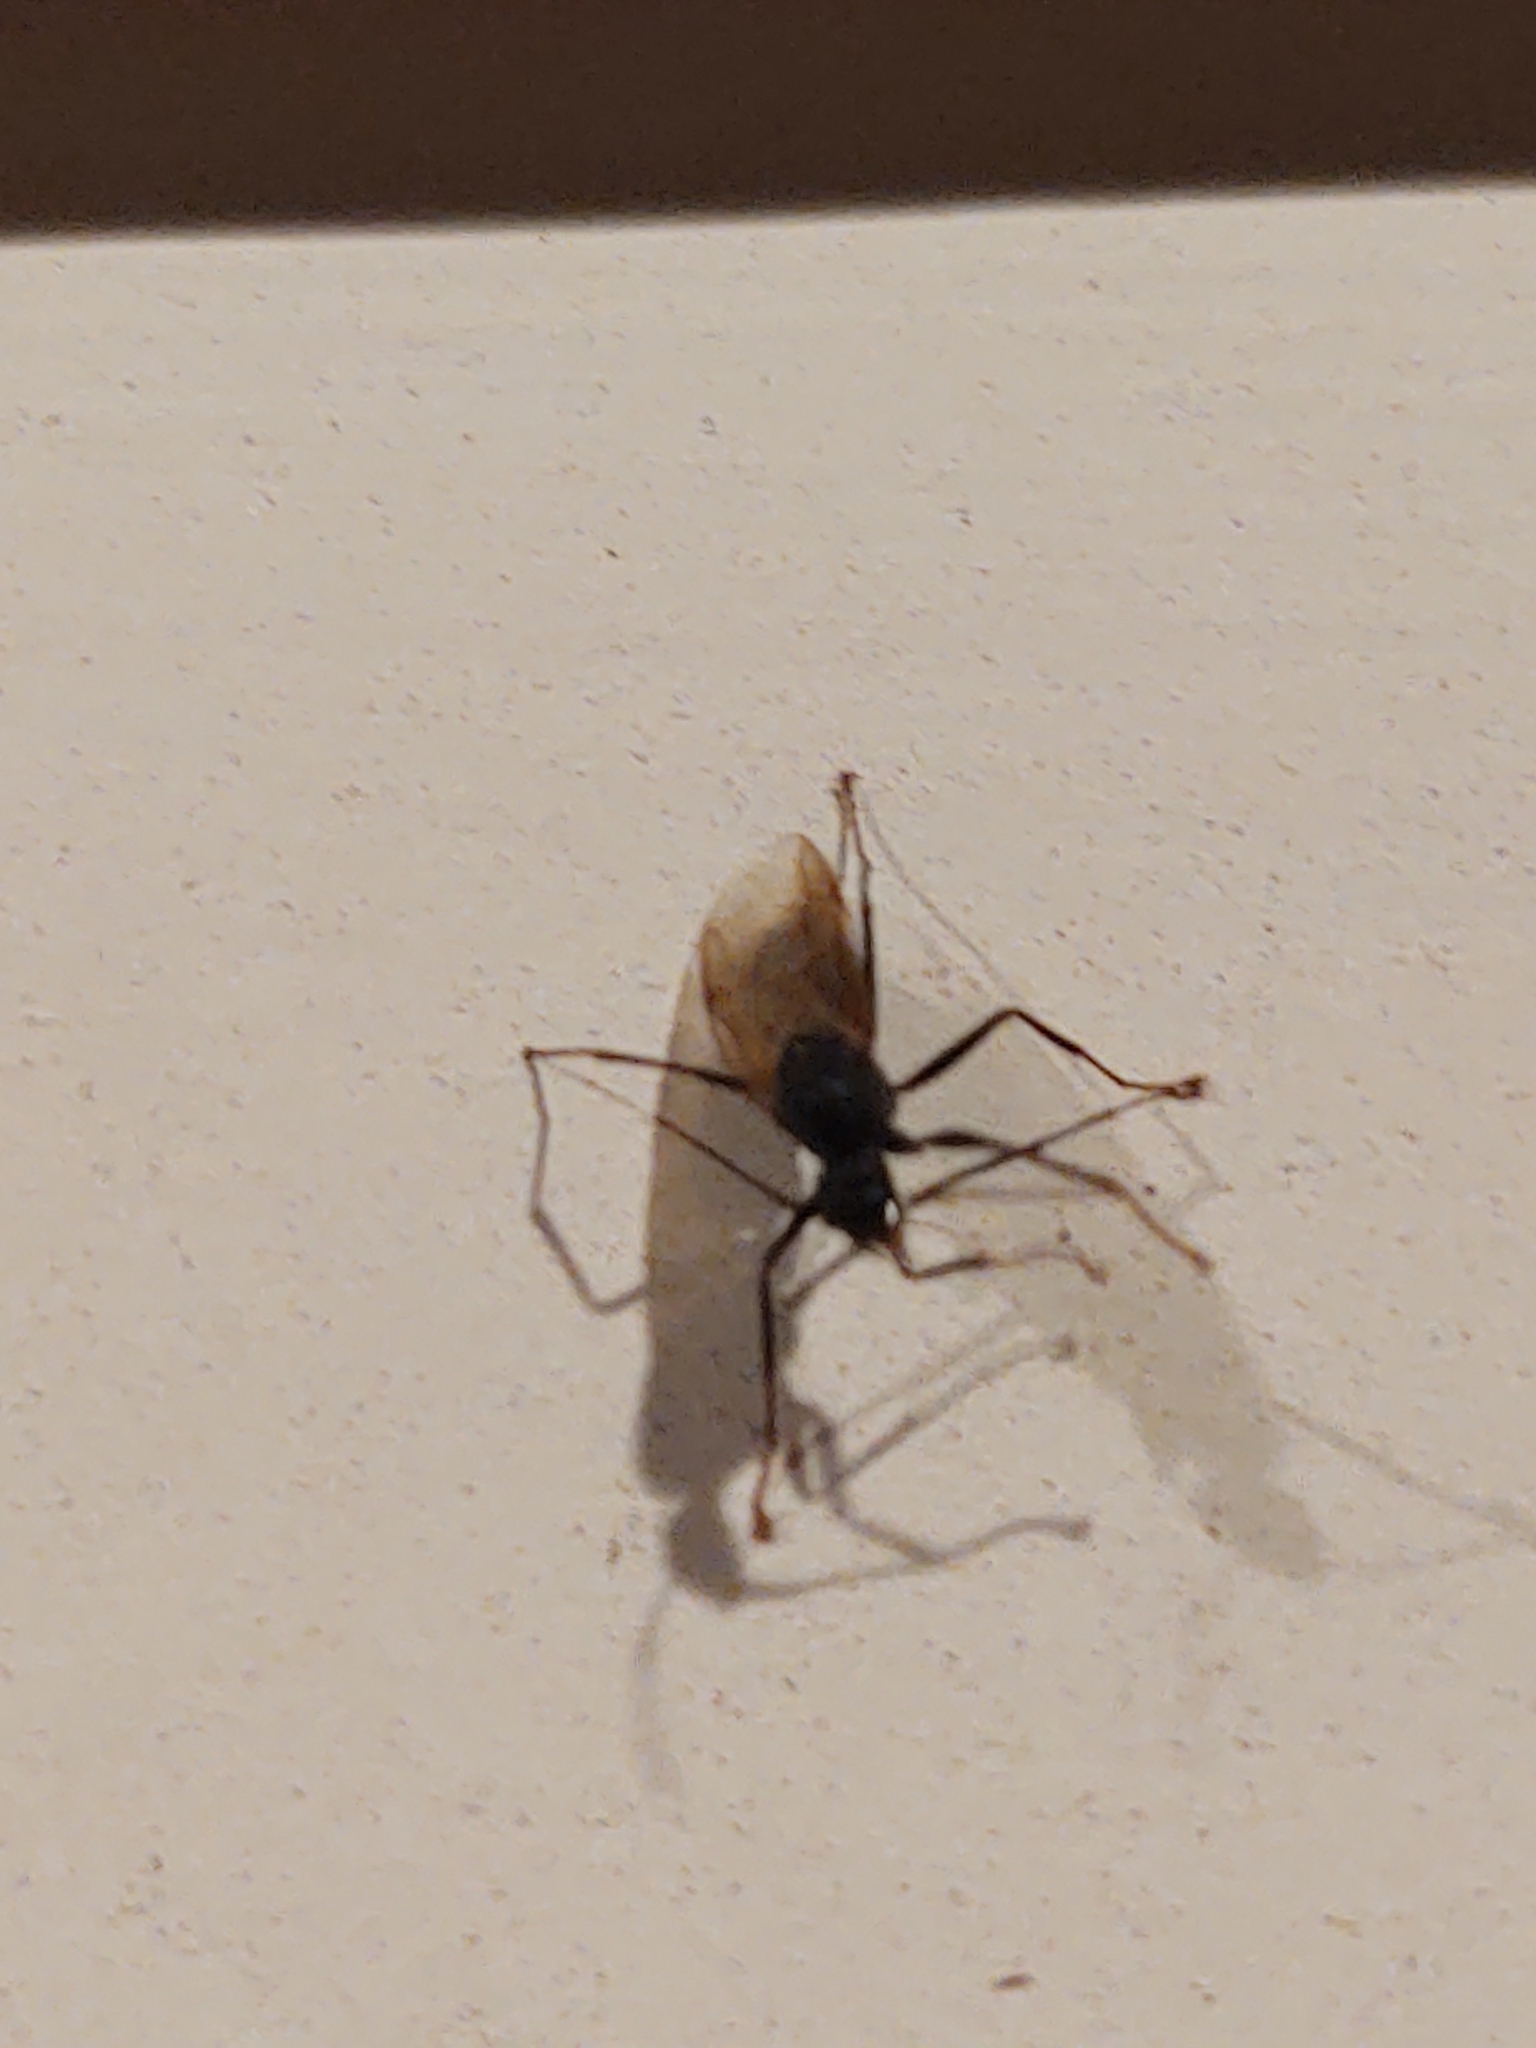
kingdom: Animalia
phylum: Arthropoda
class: Insecta
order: Hymenoptera
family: Formicidae
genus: Camponotus
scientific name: Camponotus pennsylvanicus
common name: Black carpenter ant
